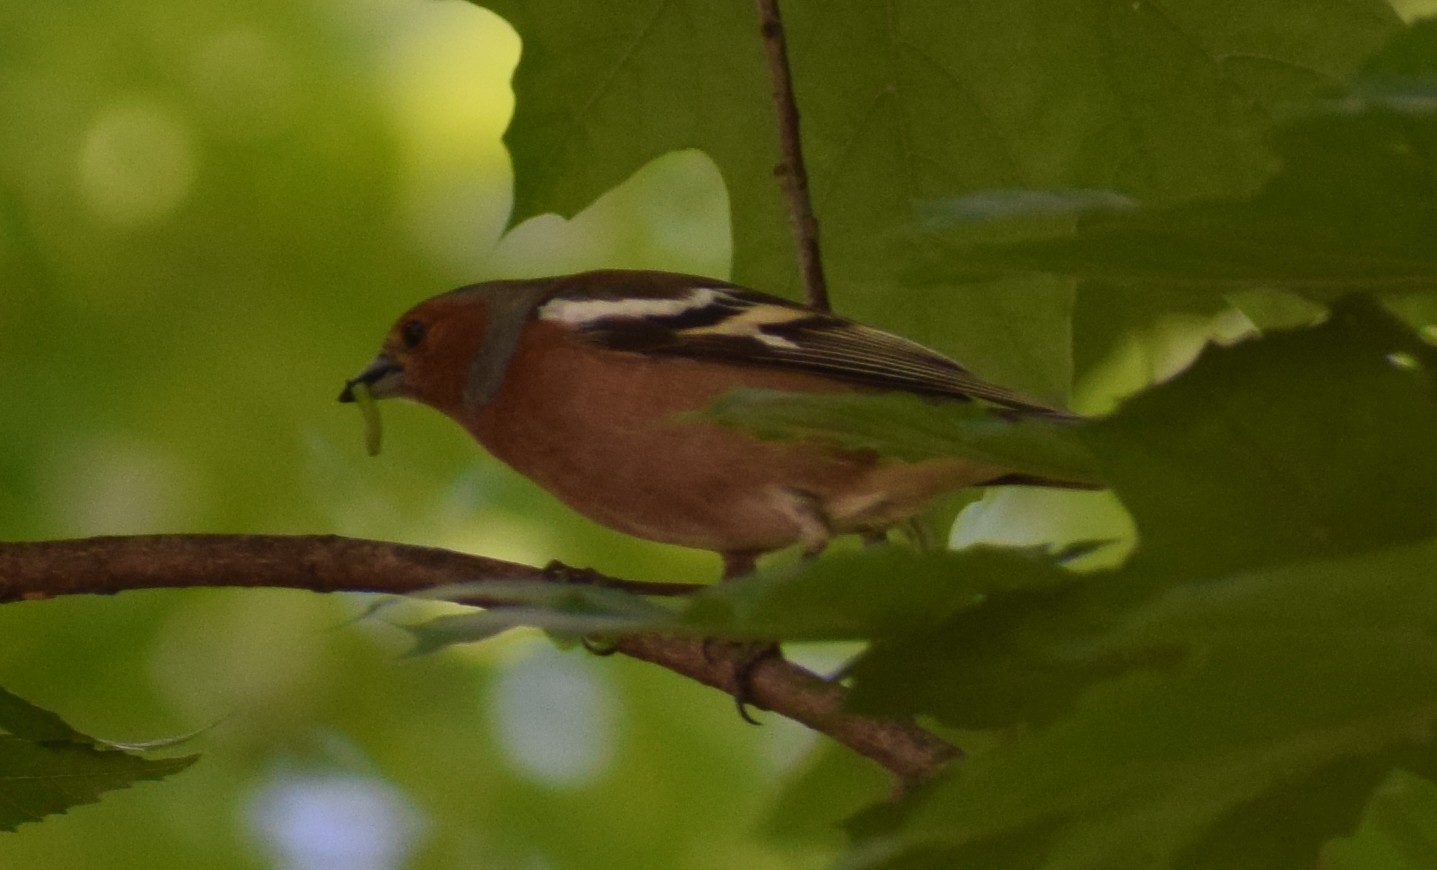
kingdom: Animalia
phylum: Chordata
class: Aves
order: Passeriformes
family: Fringillidae
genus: Fringilla
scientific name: Fringilla coelebs
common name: Common chaffinch
